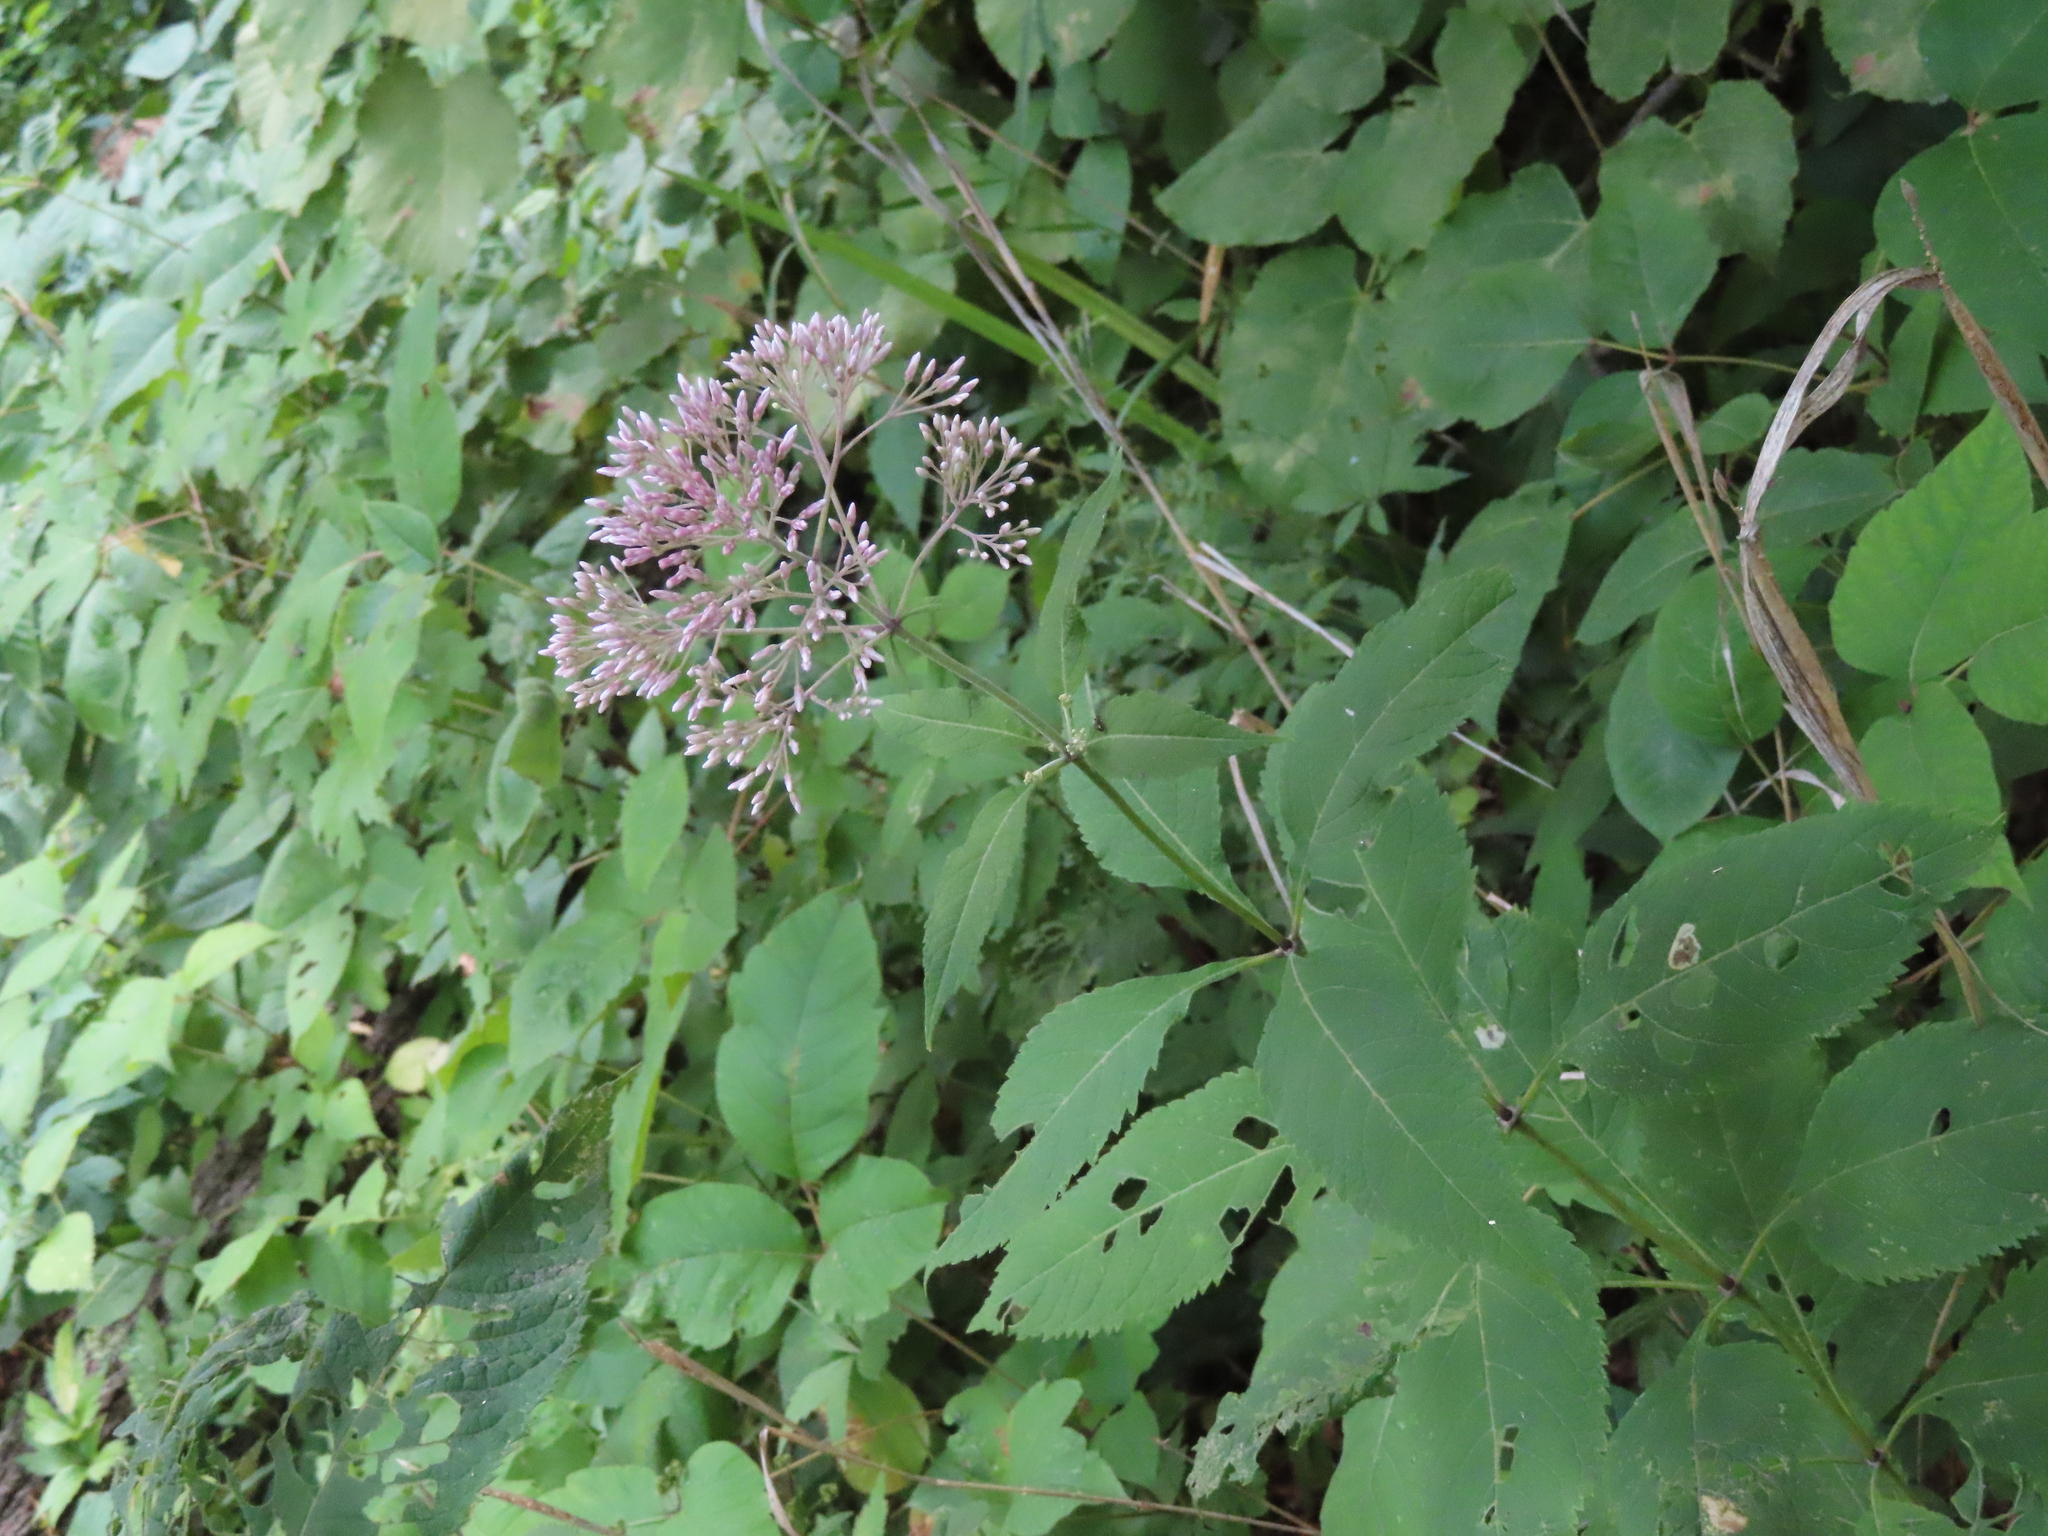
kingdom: Plantae
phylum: Tracheophyta
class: Magnoliopsida
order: Asterales
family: Asteraceae
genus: Eutrochium
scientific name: Eutrochium purpureum
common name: Gravelroot
